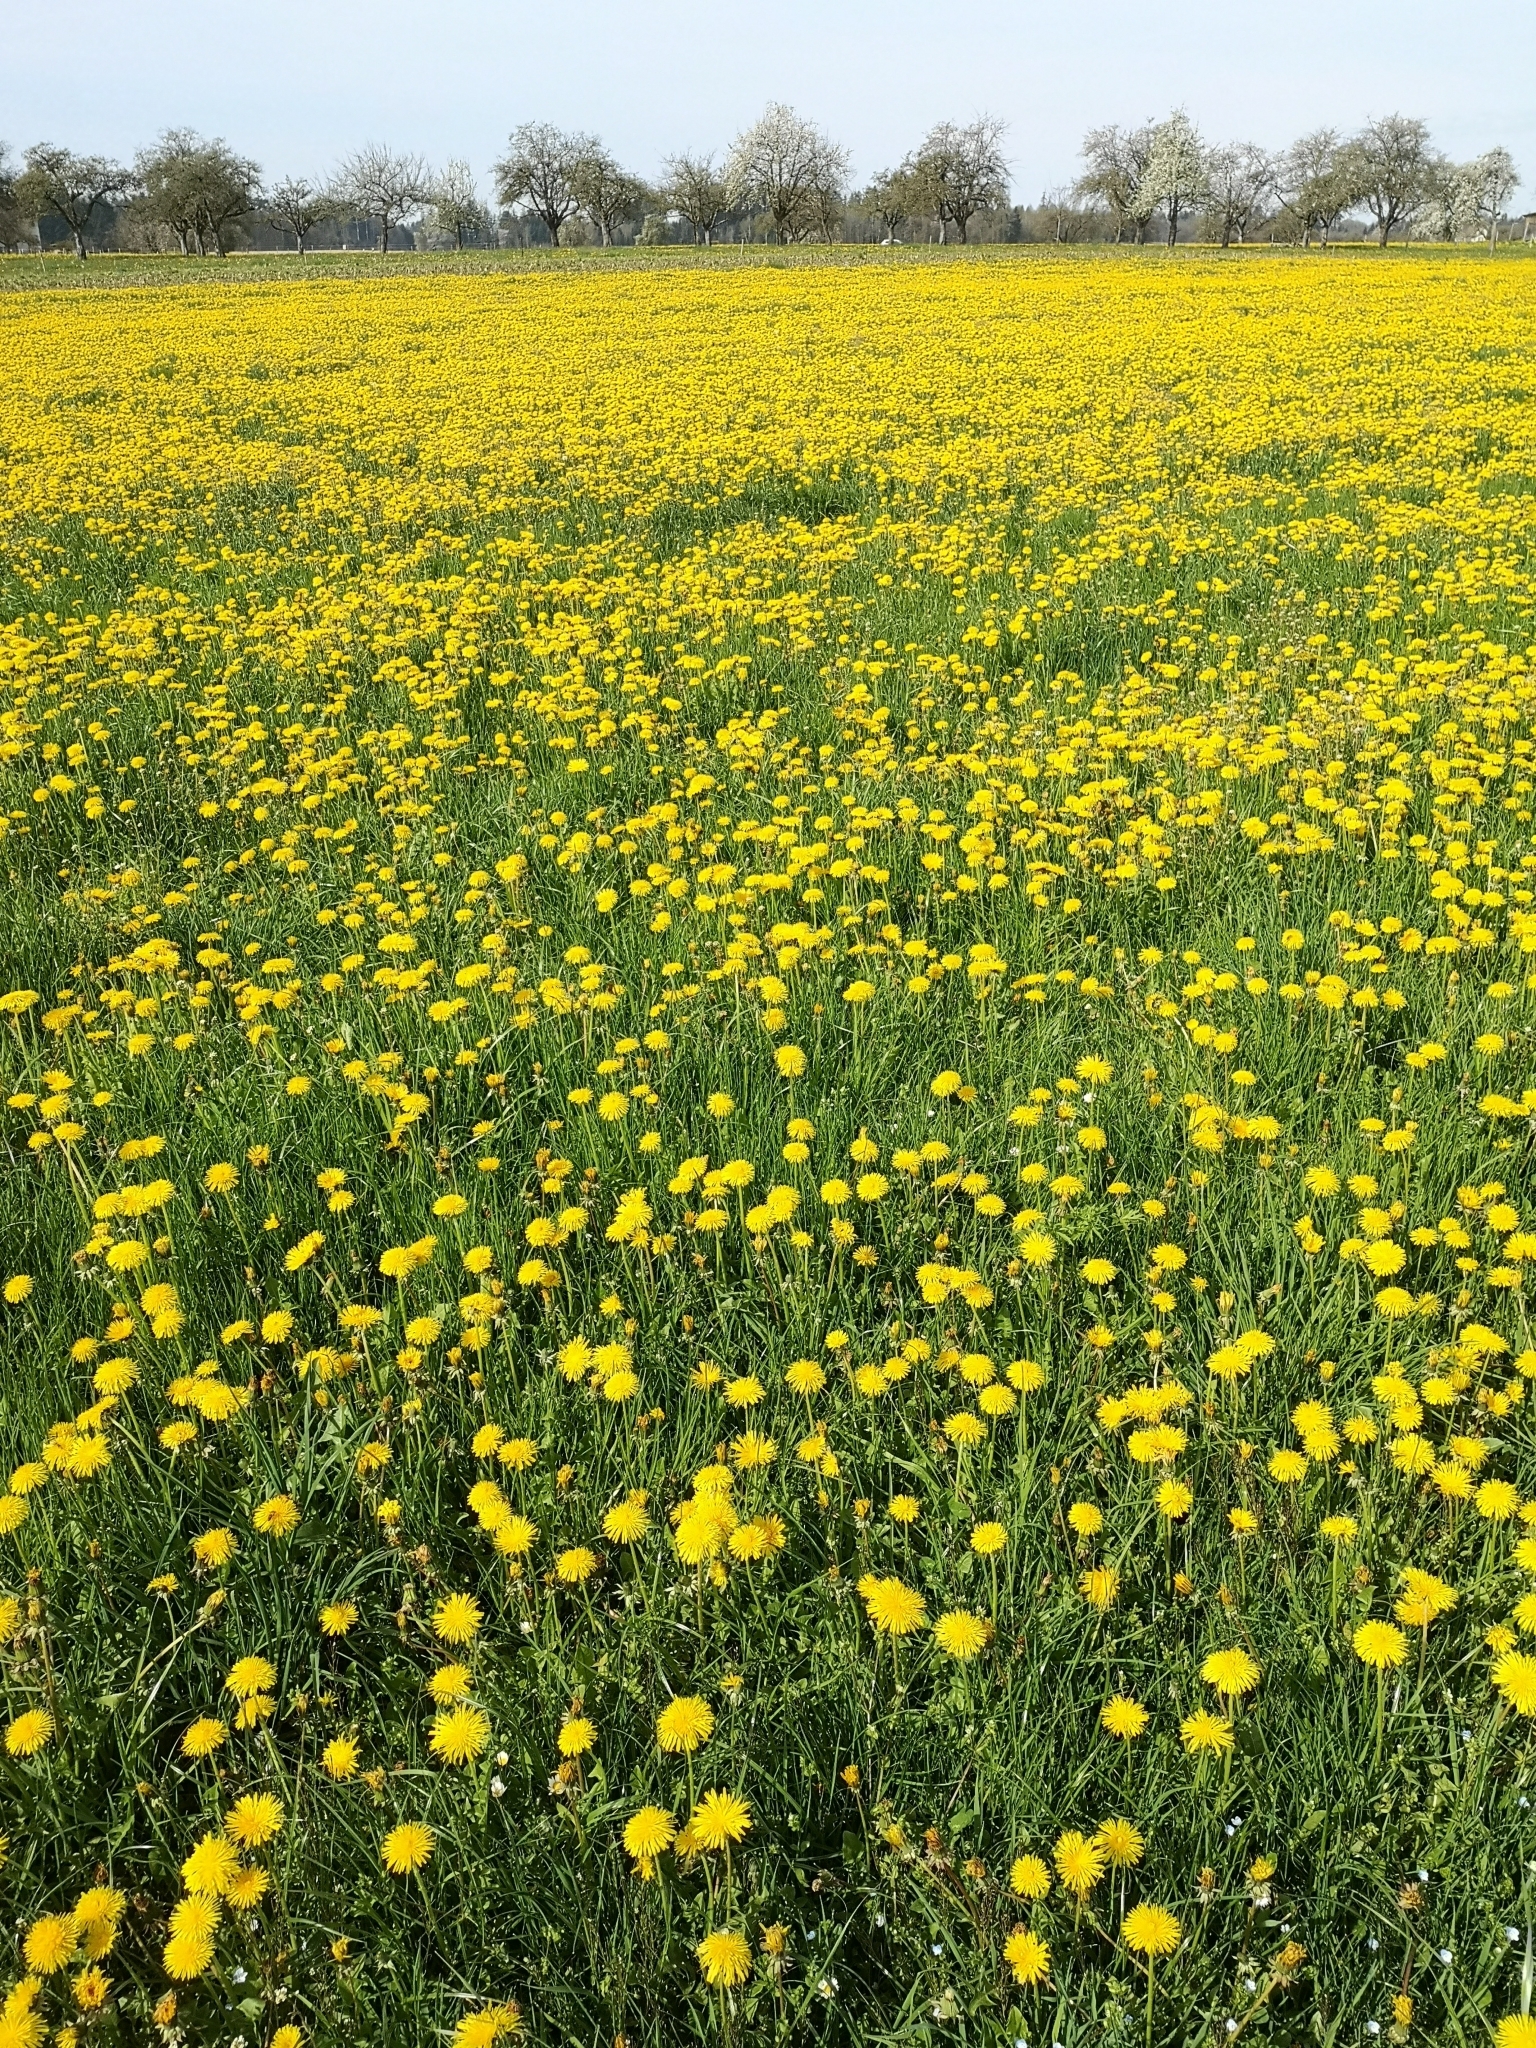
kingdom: Plantae
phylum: Tracheophyta
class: Magnoliopsida
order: Asterales
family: Asteraceae
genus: Taraxacum
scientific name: Taraxacum officinale
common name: Common dandelion
